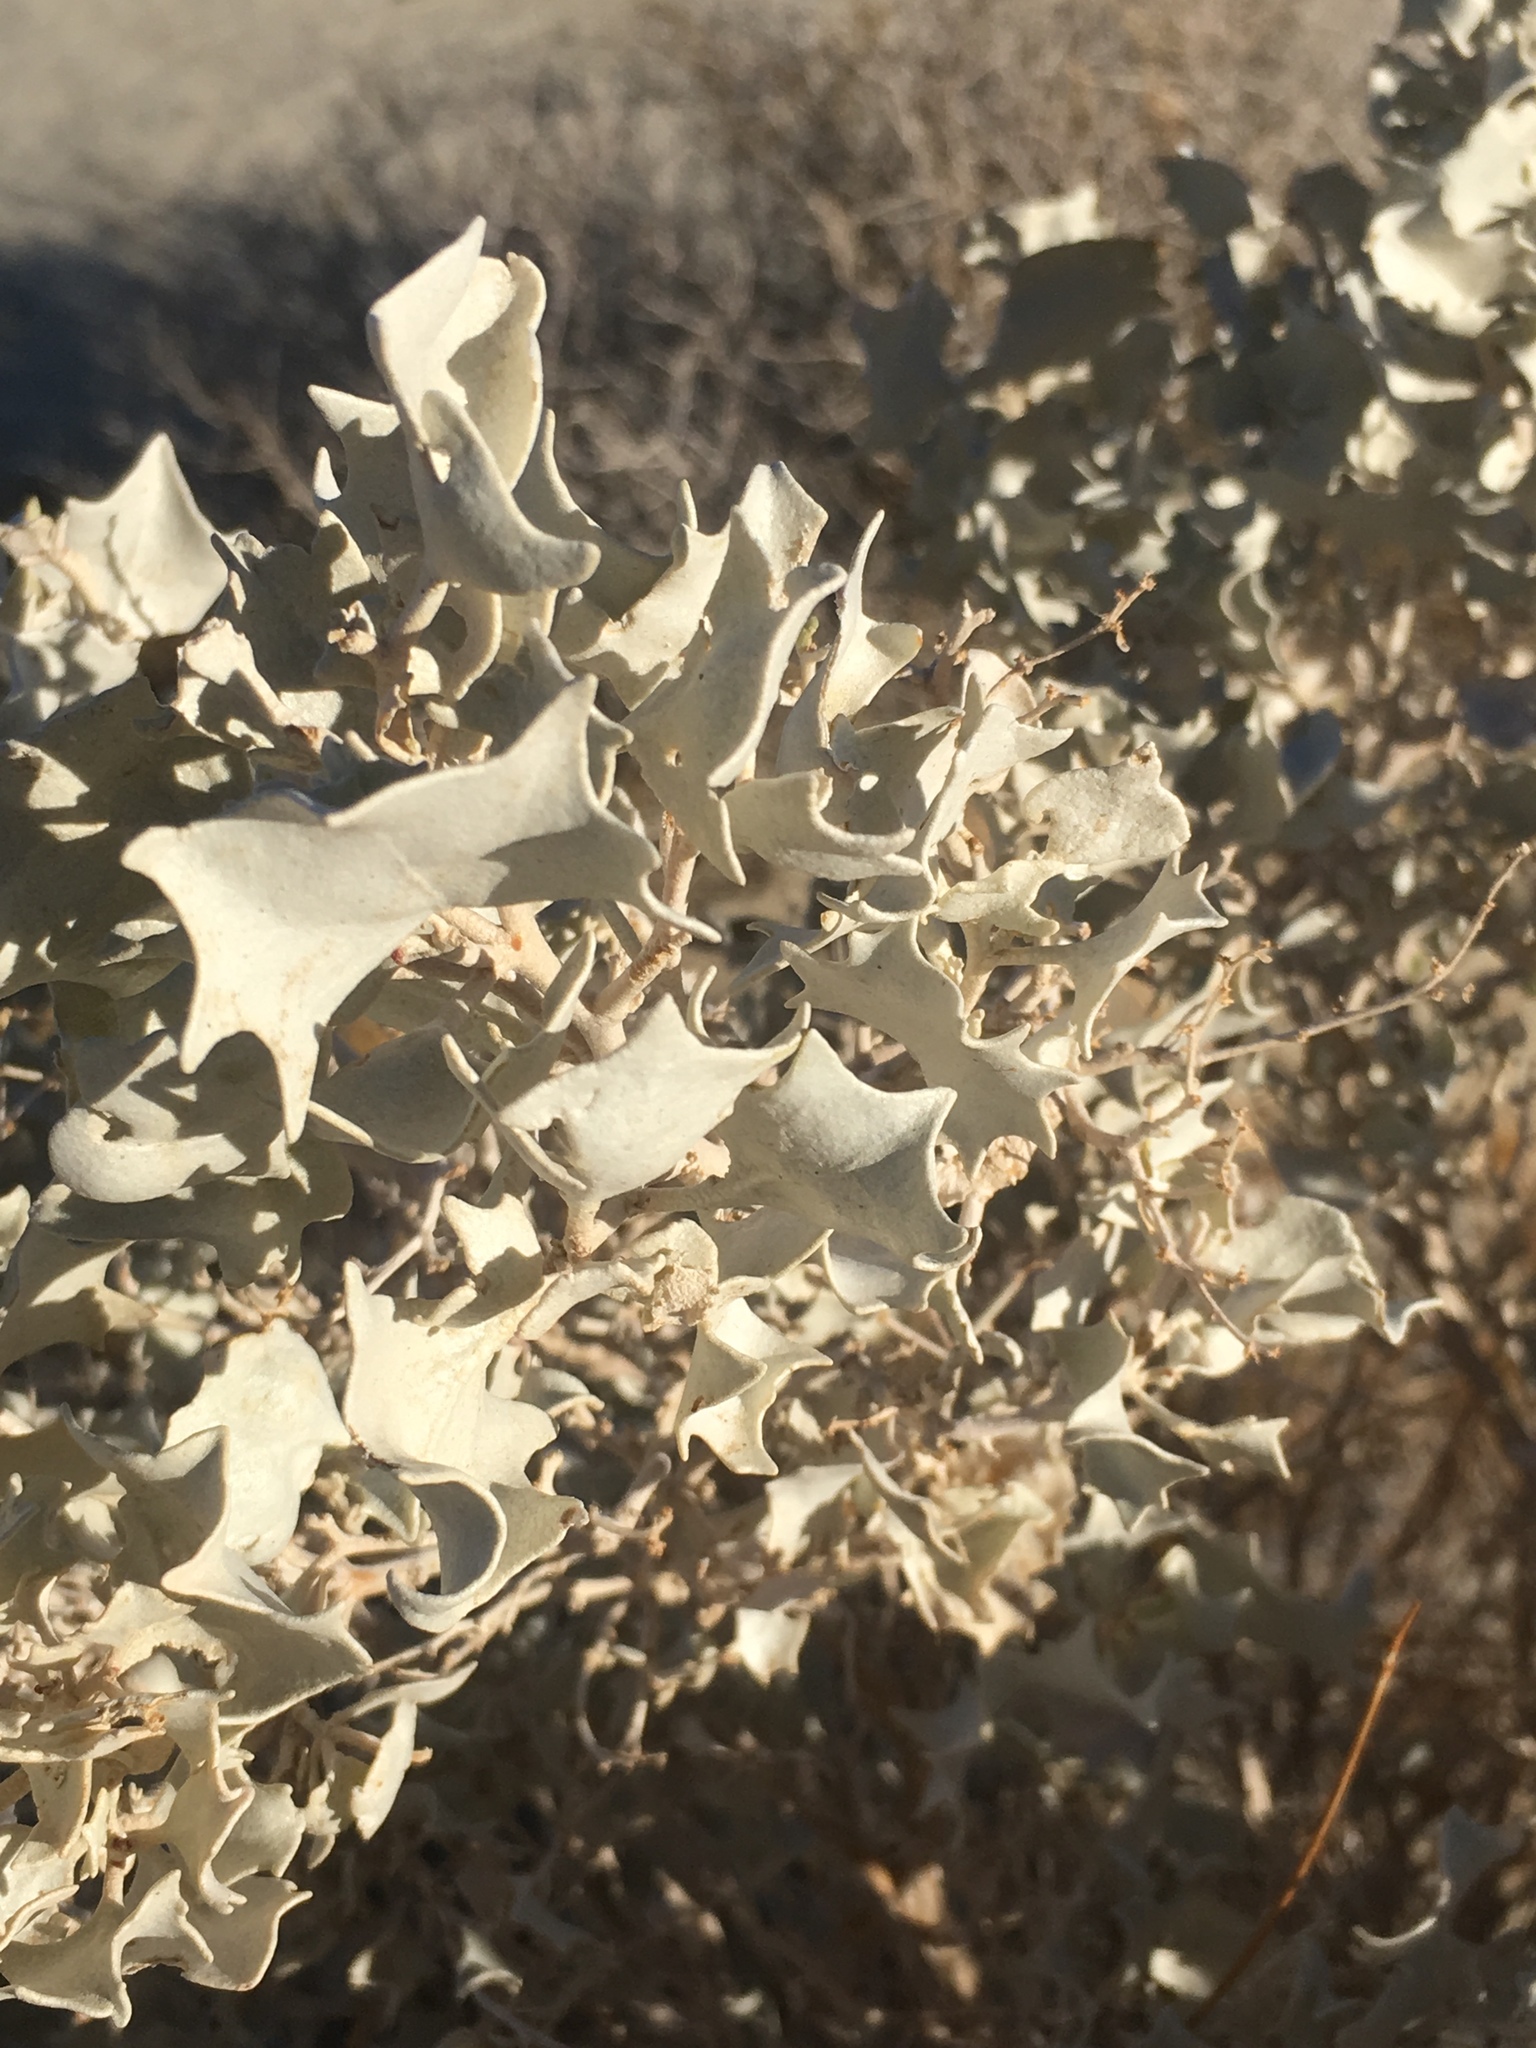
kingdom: Plantae
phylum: Tracheophyta
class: Magnoliopsida
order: Caryophyllales
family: Amaranthaceae
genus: Atriplex
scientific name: Atriplex hymenelytra
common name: Desert-holly
